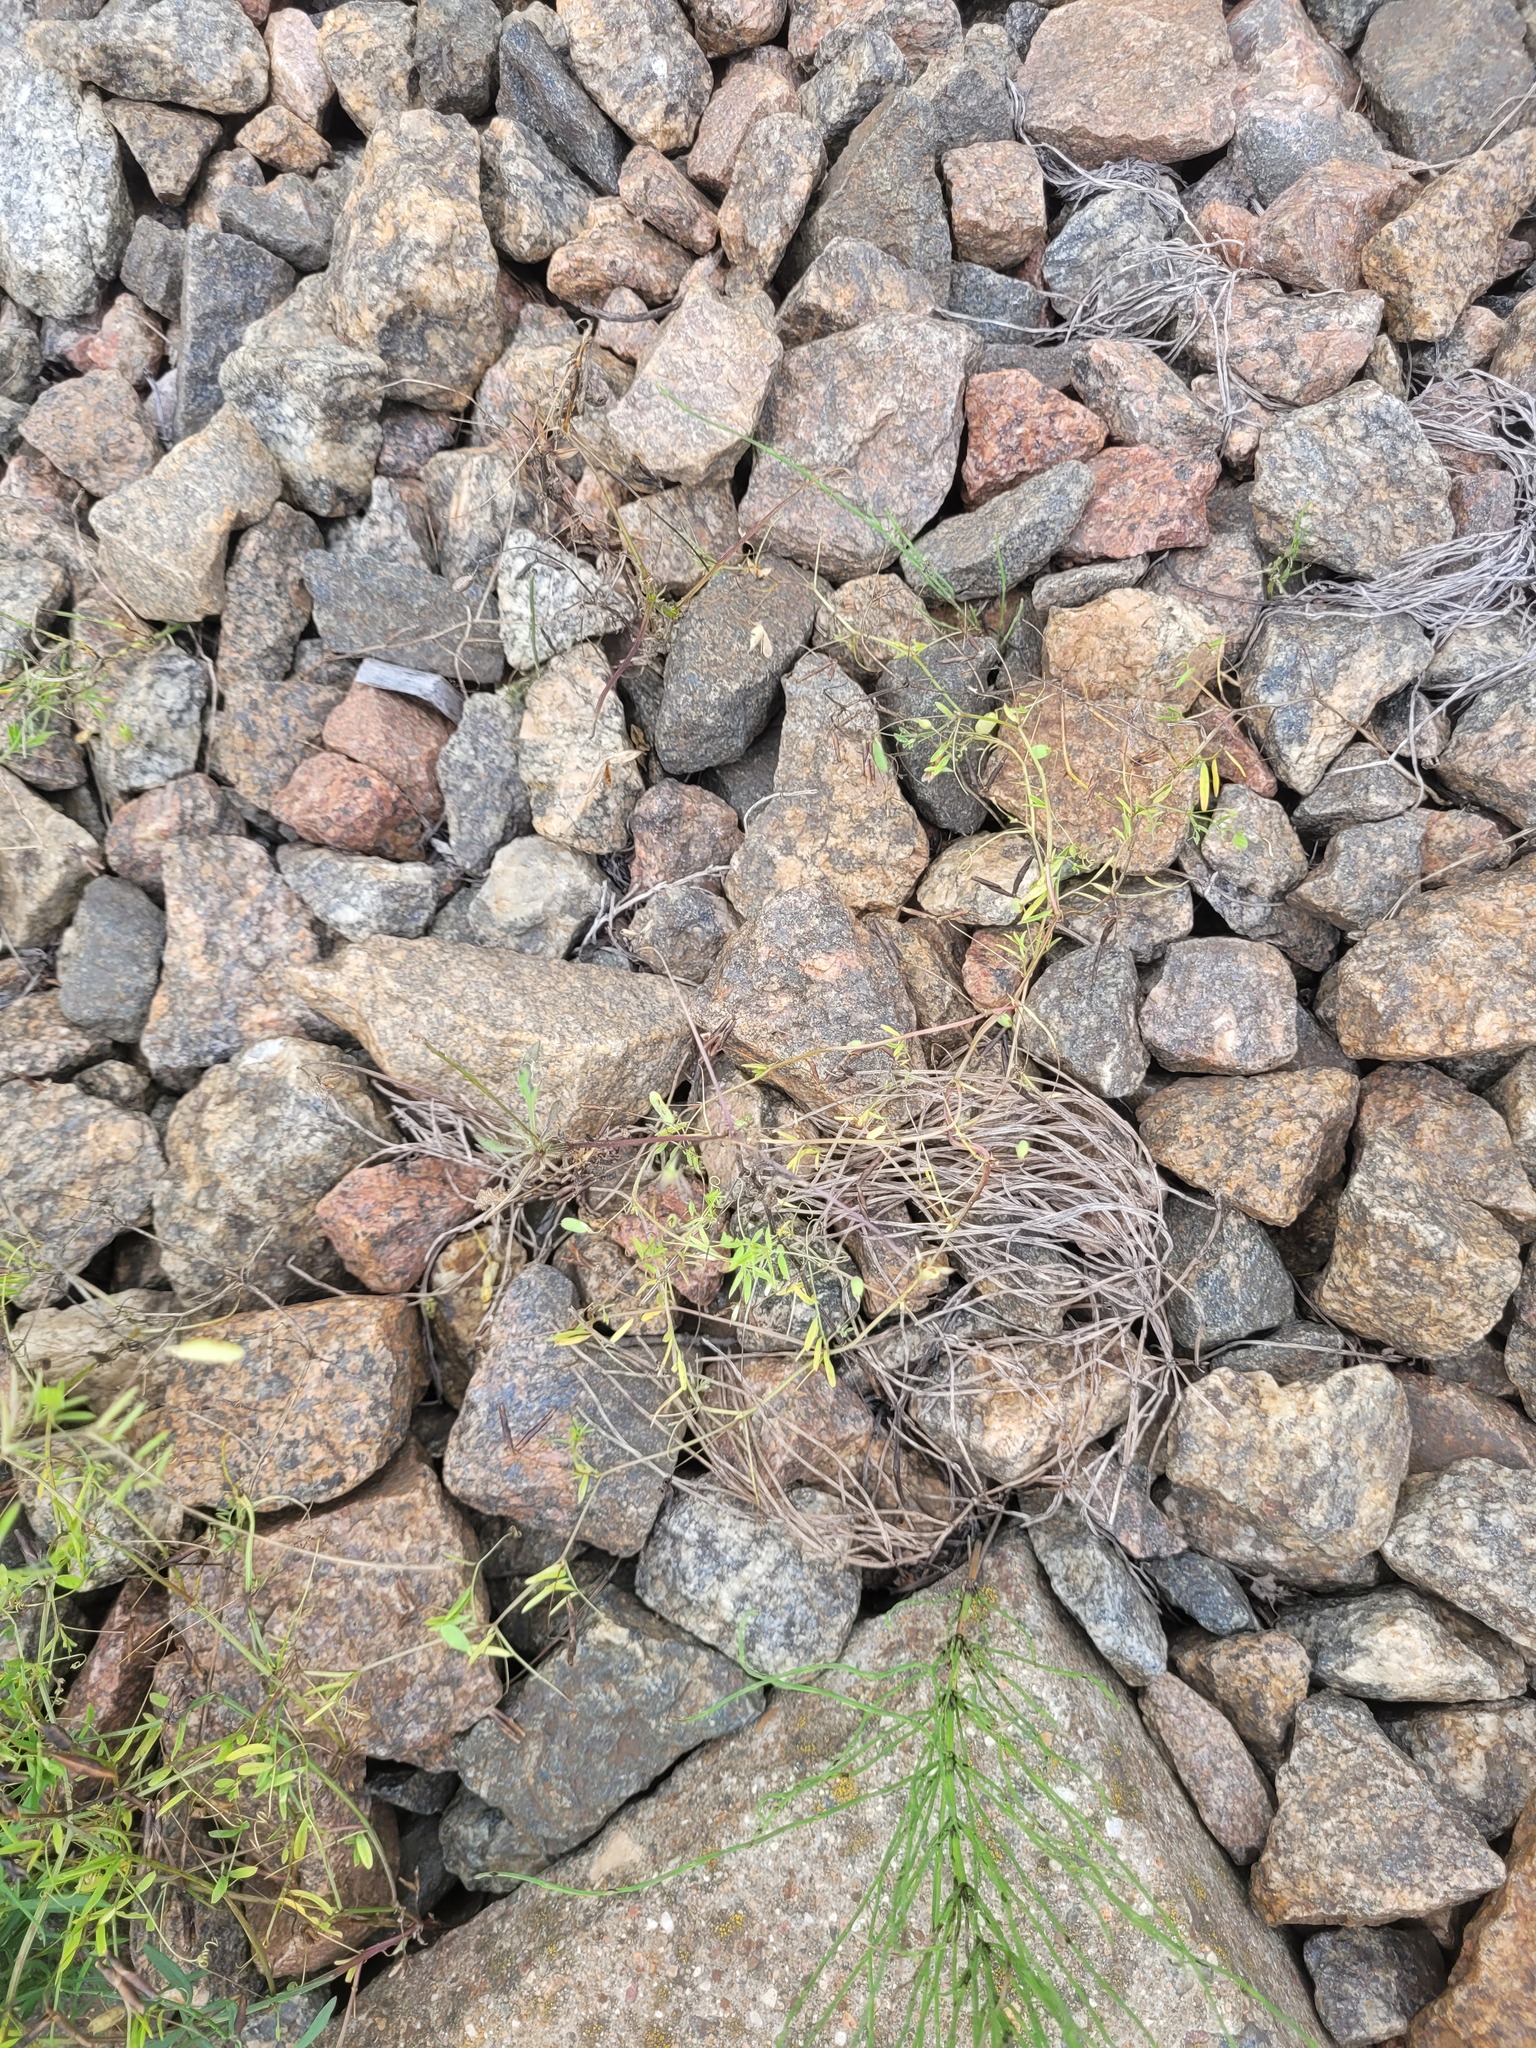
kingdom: Plantae
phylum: Tracheophyta
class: Magnoliopsida
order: Fabales
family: Fabaceae
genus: Vicia
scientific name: Vicia tetrasperma
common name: Smooth tare
